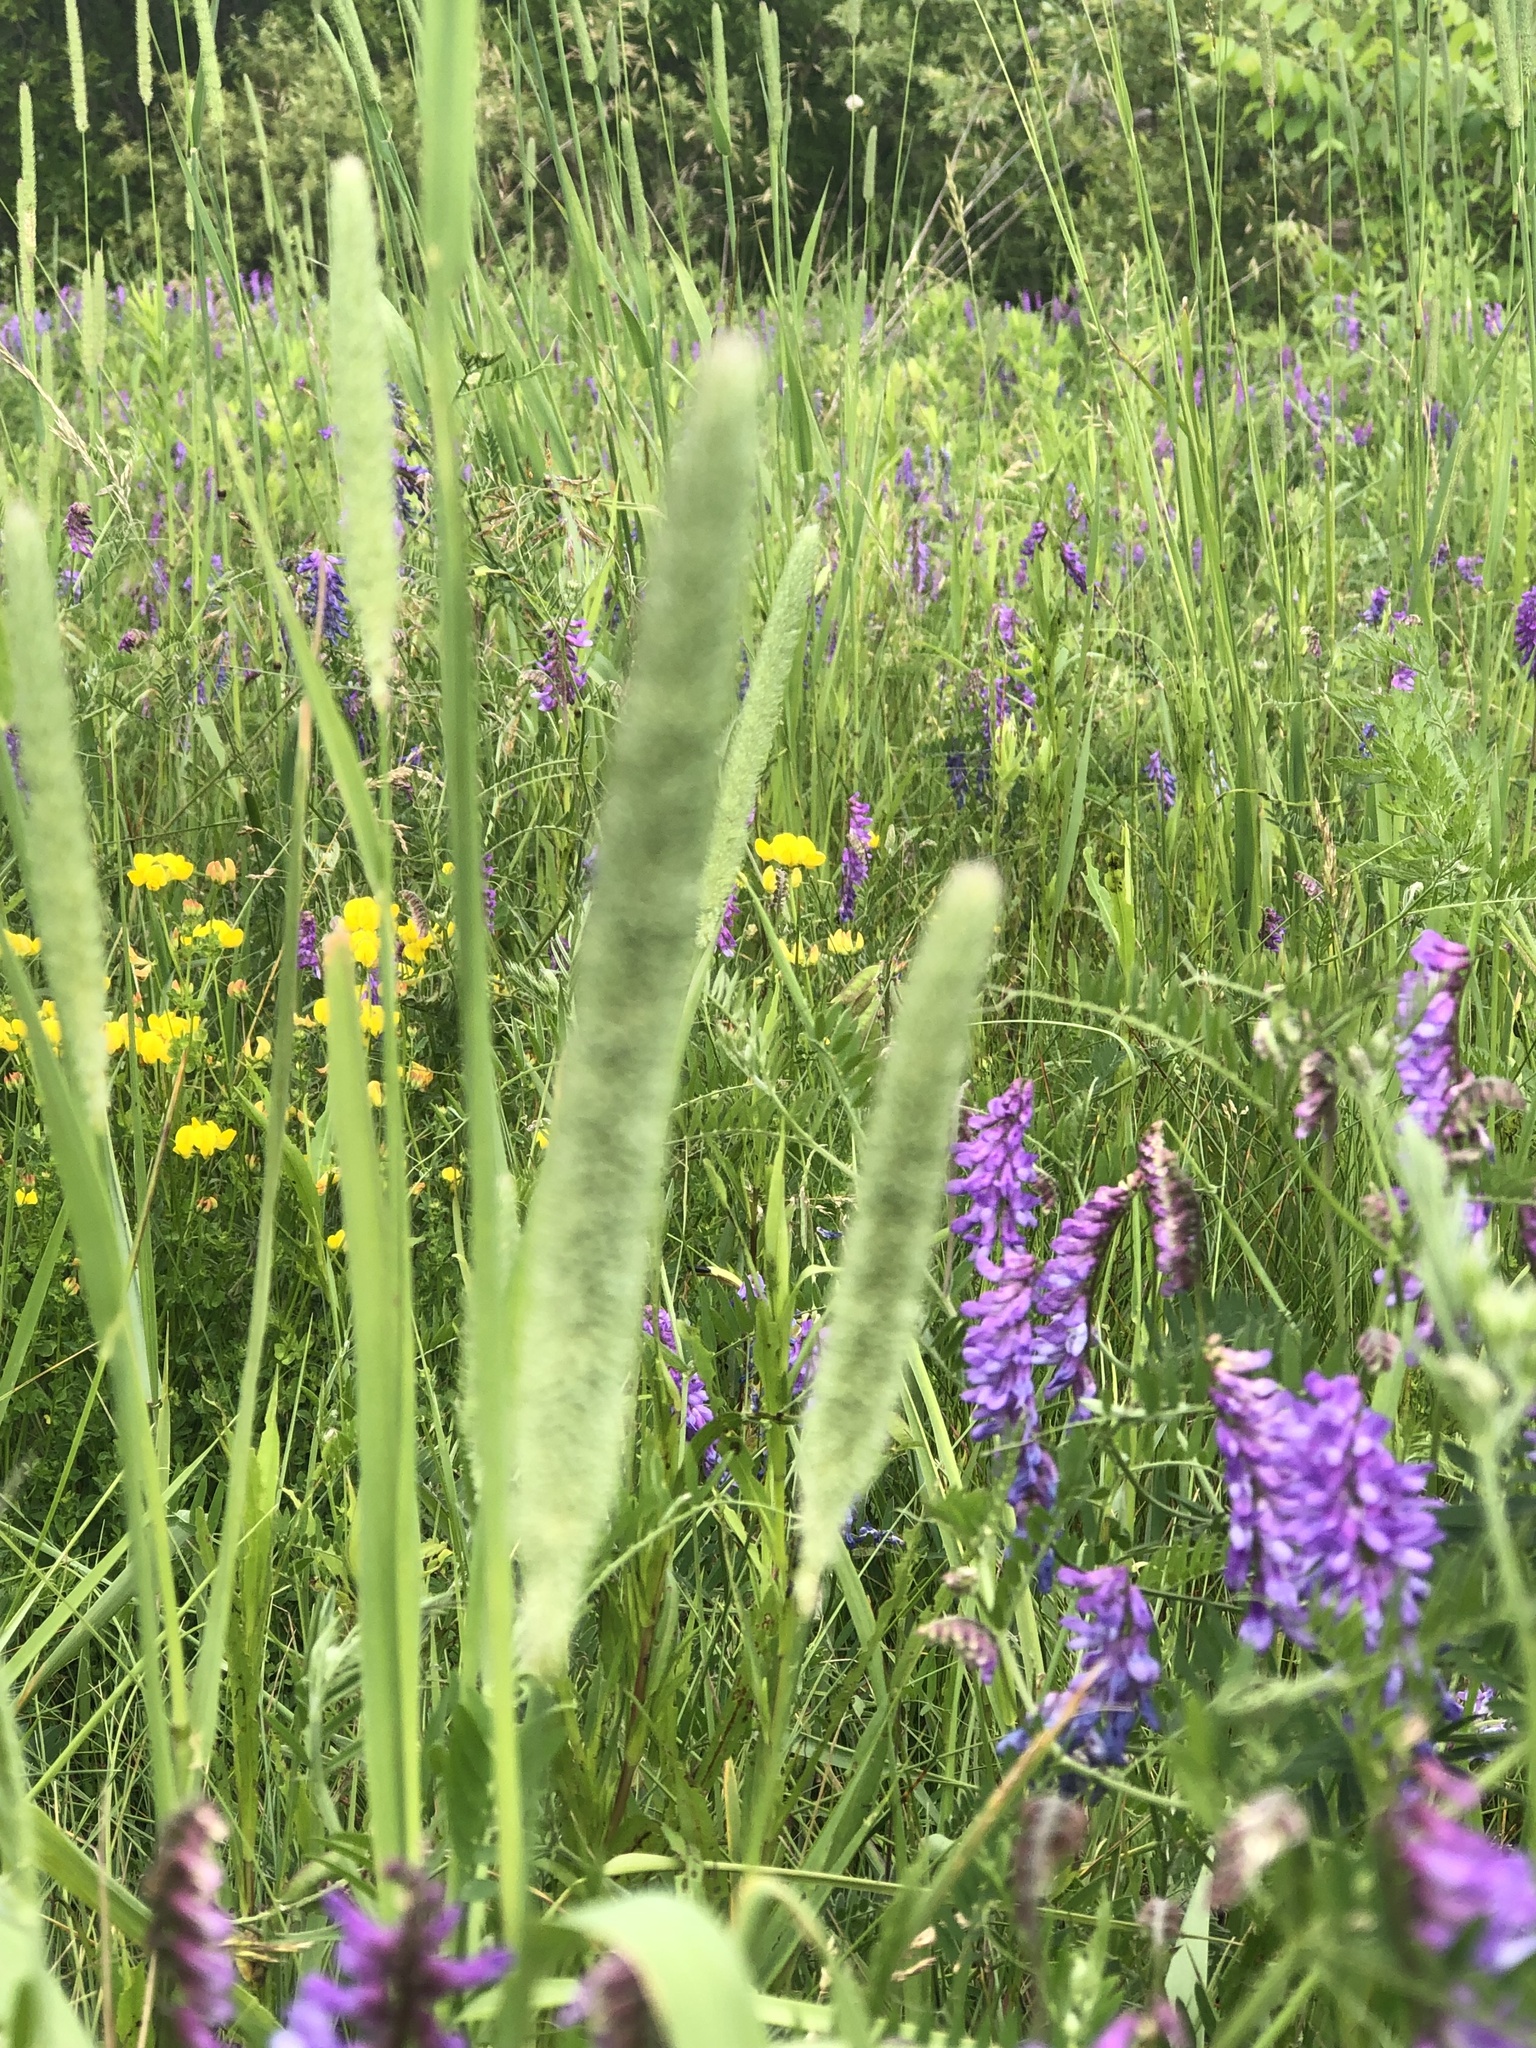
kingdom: Plantae
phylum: Tracheophyta
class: Liliopsida
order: Poales
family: Poaceae
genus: Phleum
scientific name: Phleum pratense
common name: Timothy grass
